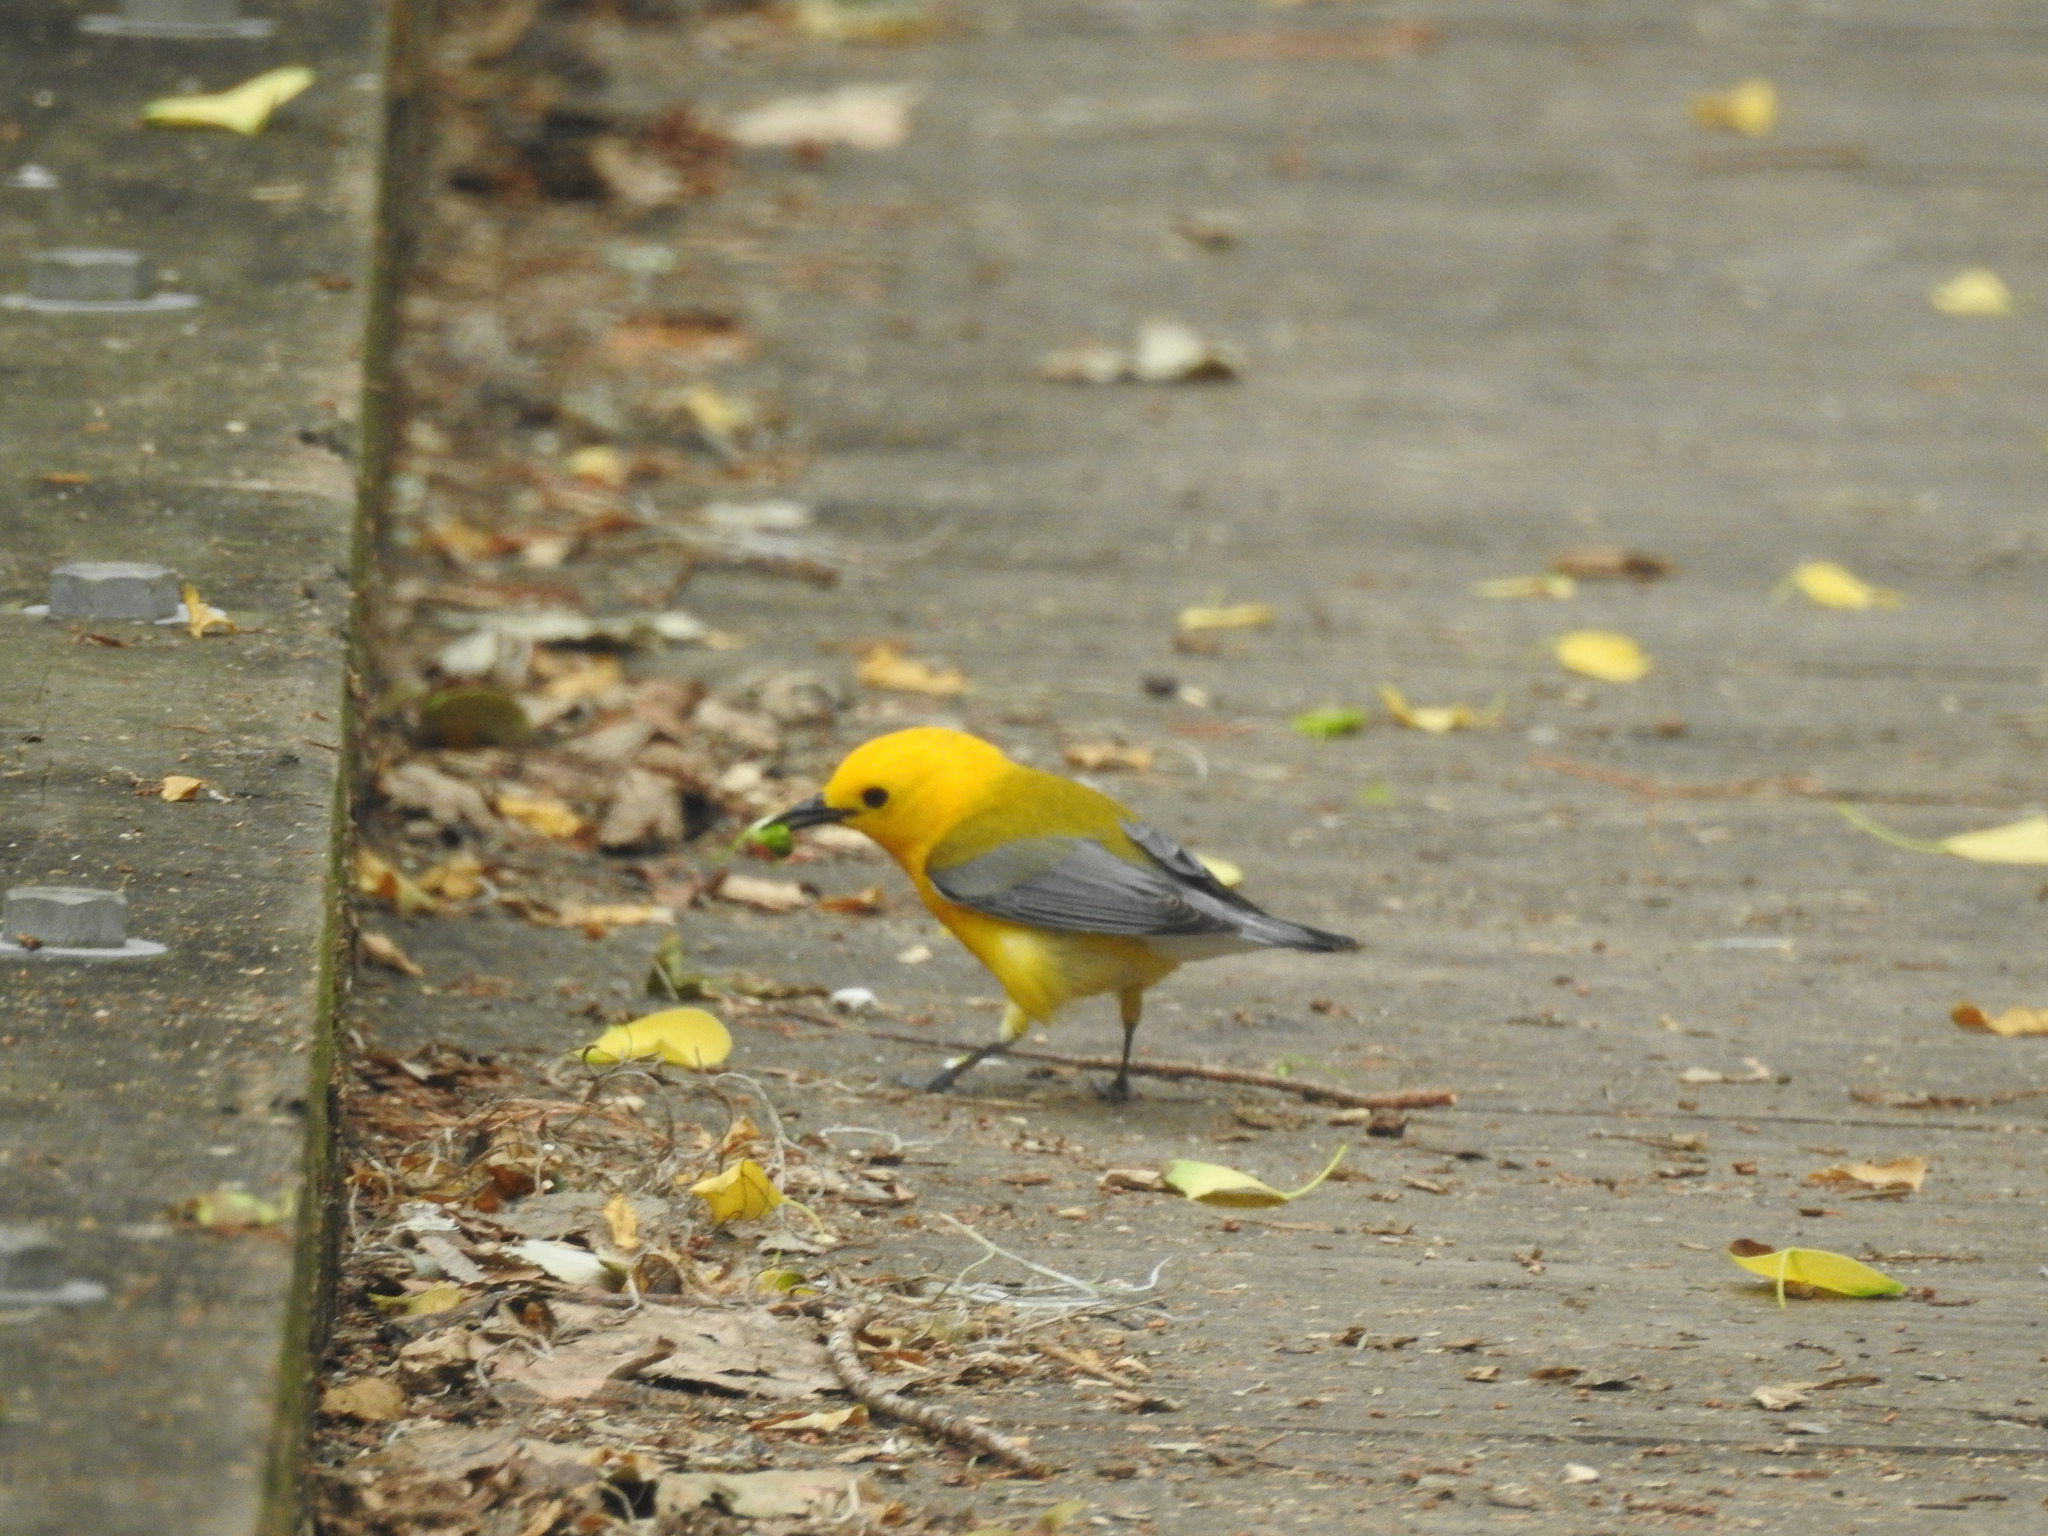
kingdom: Animalia
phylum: Chordata
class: Aves
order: Passeriformes
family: Parulidae
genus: Protonotaria
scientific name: Protonotaria citrea
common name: Prothonotary warbler
